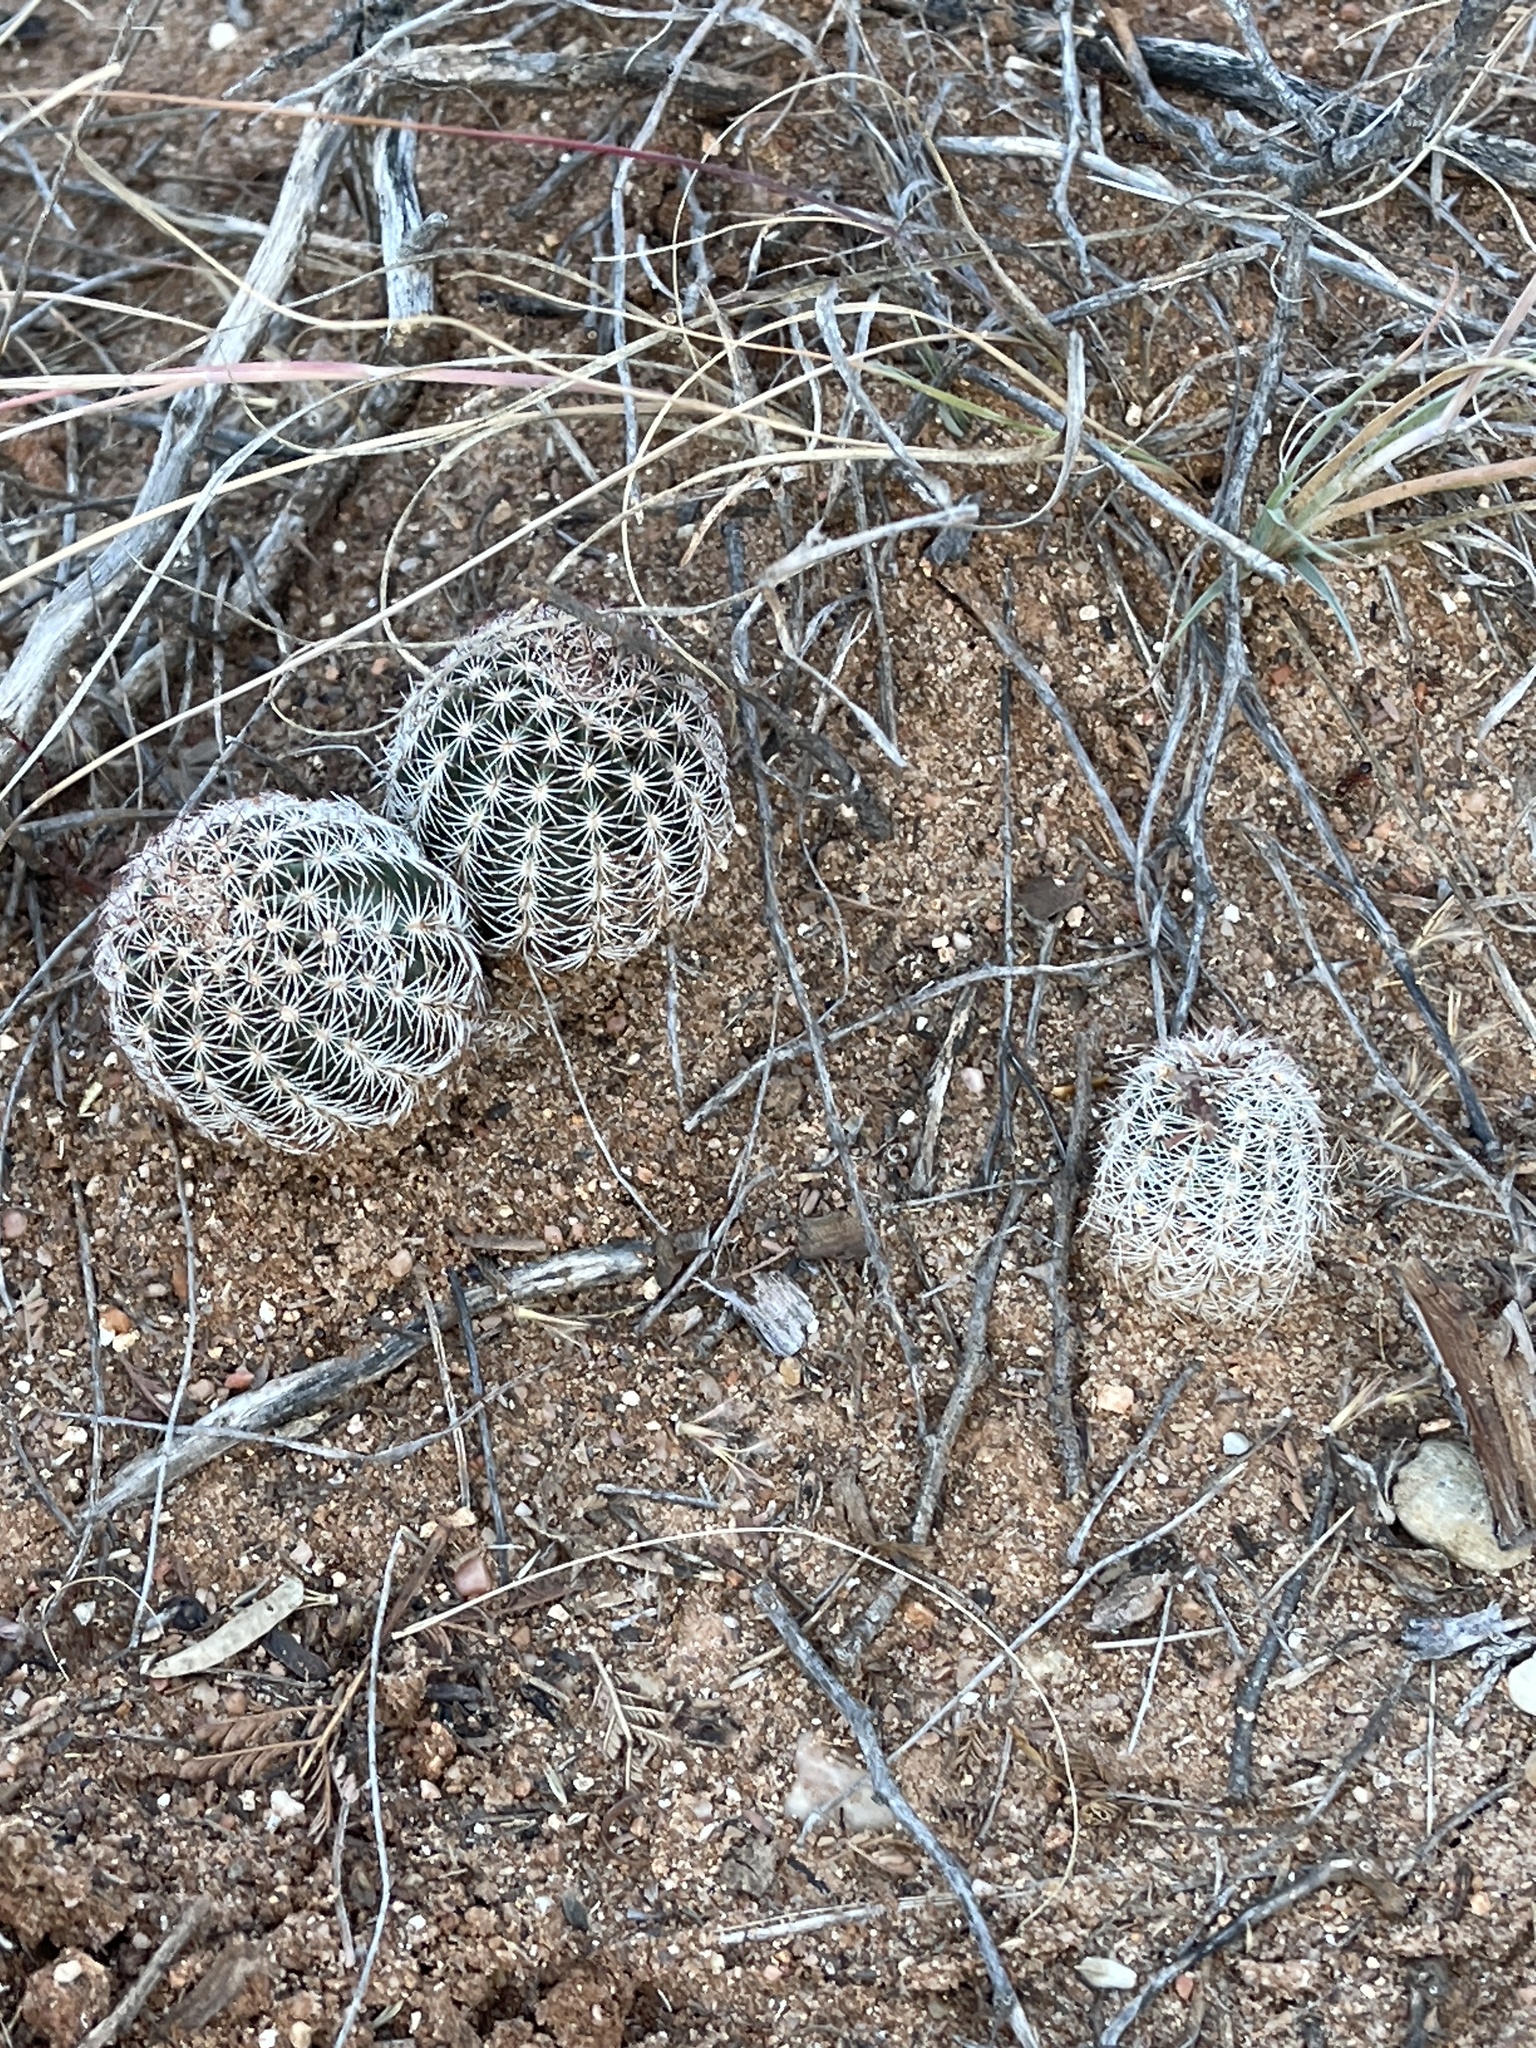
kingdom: Plantae
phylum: Tracheophyta
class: Magnoliopsida
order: Caryophyllales
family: Cactaceae
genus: Echinocereus
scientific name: Echinocereus reichenbachii
